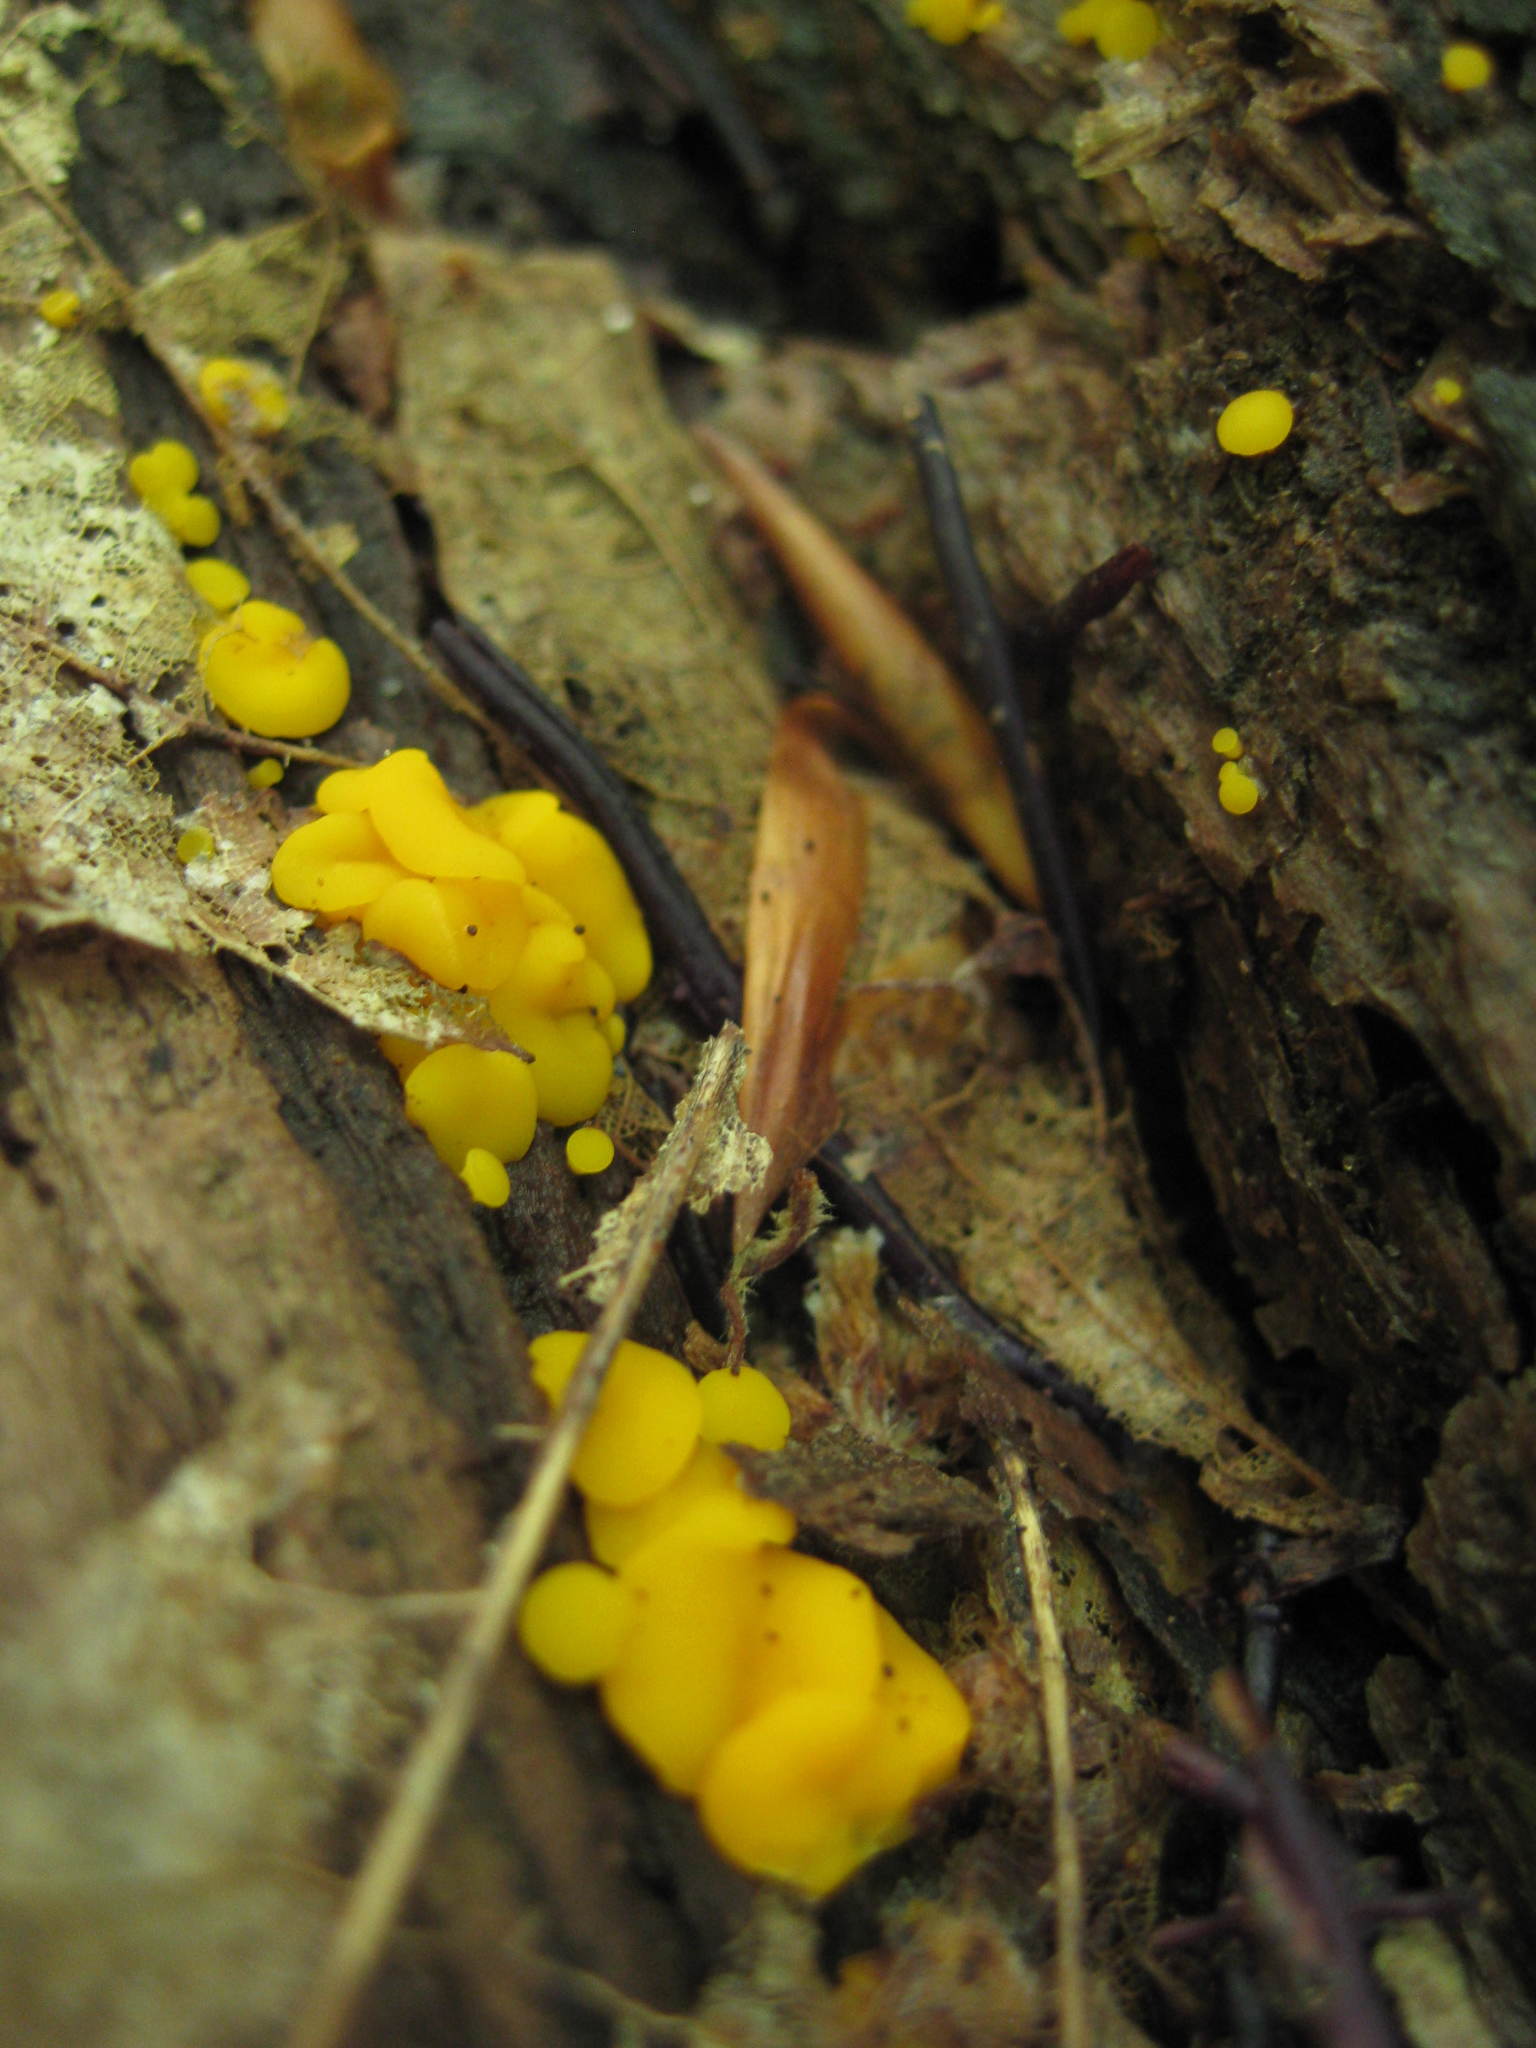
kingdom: Fungi
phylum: Ascomycota
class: Leotiomycetes
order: Helotiales
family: Pezizellaceae
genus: Calycina
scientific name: Calycina citrina
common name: Yellow fairy cups
